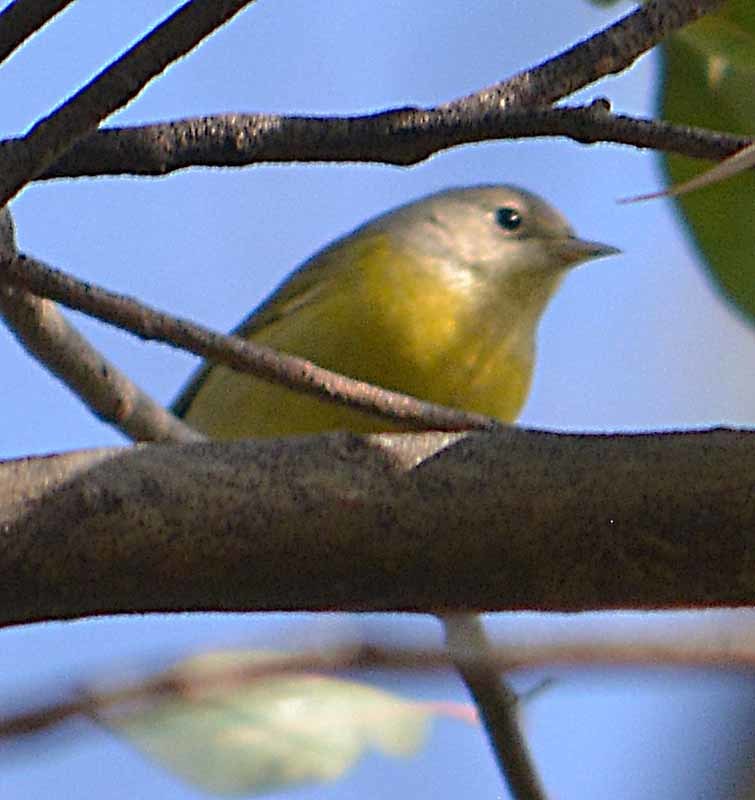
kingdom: Animalia
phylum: Chordata
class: Aves
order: Passeriformes
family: Parulidae
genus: Leiothlypis
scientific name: Leiothlypis ruficapilla
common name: Nashville warbler
